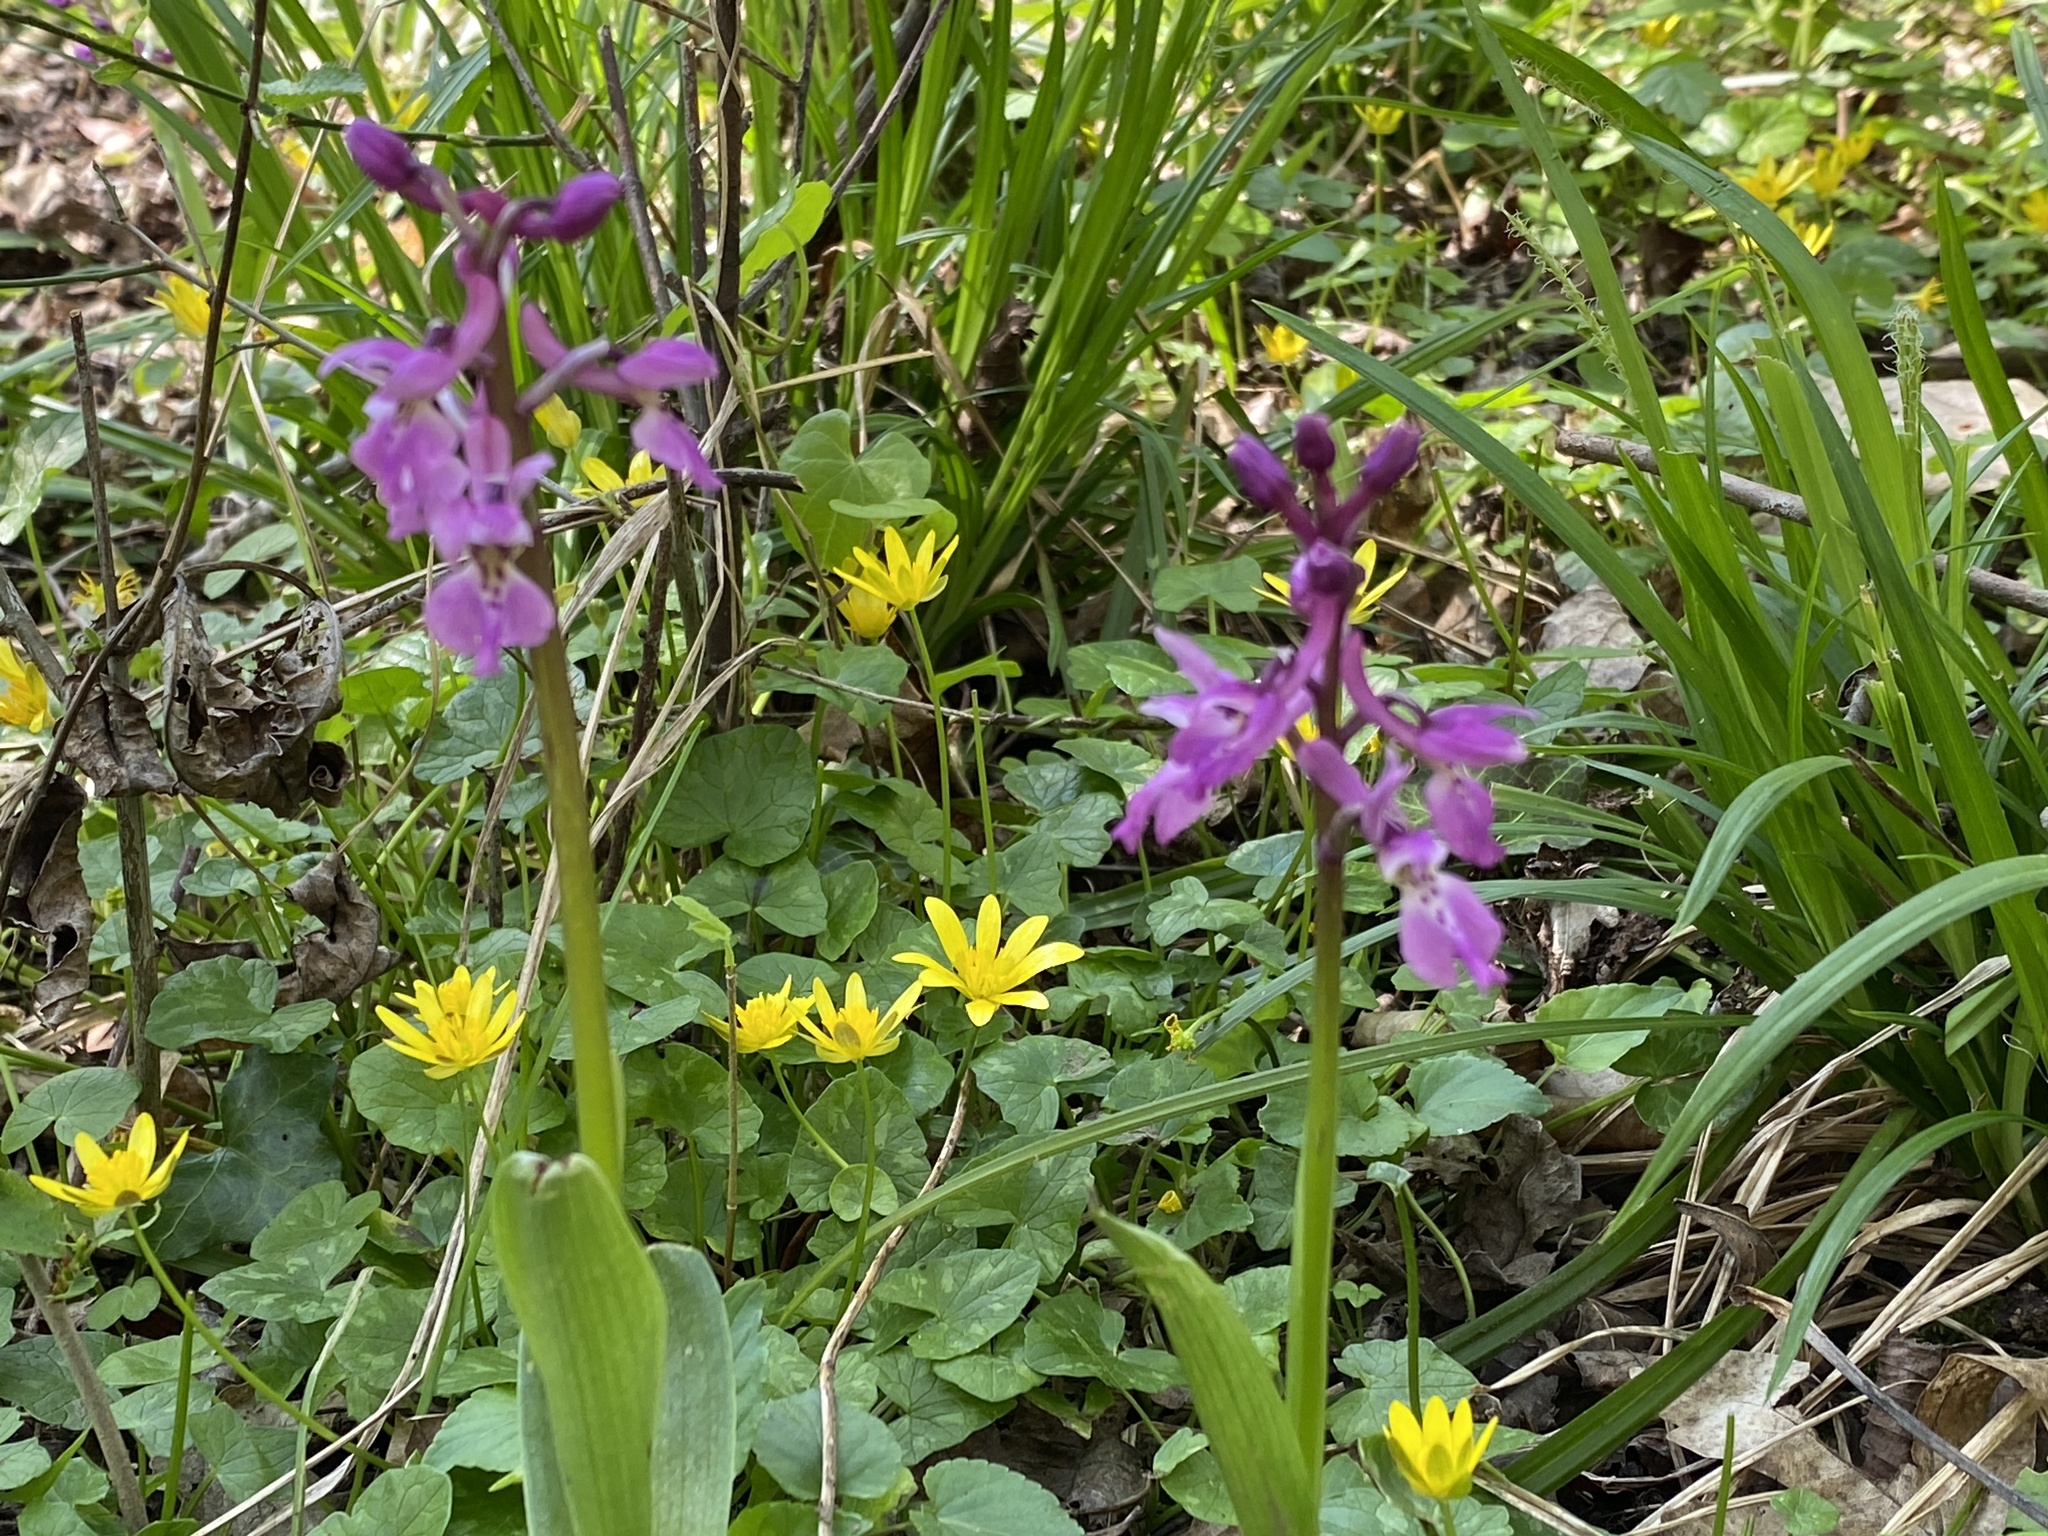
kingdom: Plantae
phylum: Tracheophyta
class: Liliopsida
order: Asparagales
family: Orchidaceae
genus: Orchis
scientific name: Orchis mascula
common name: Early-purple orchid
